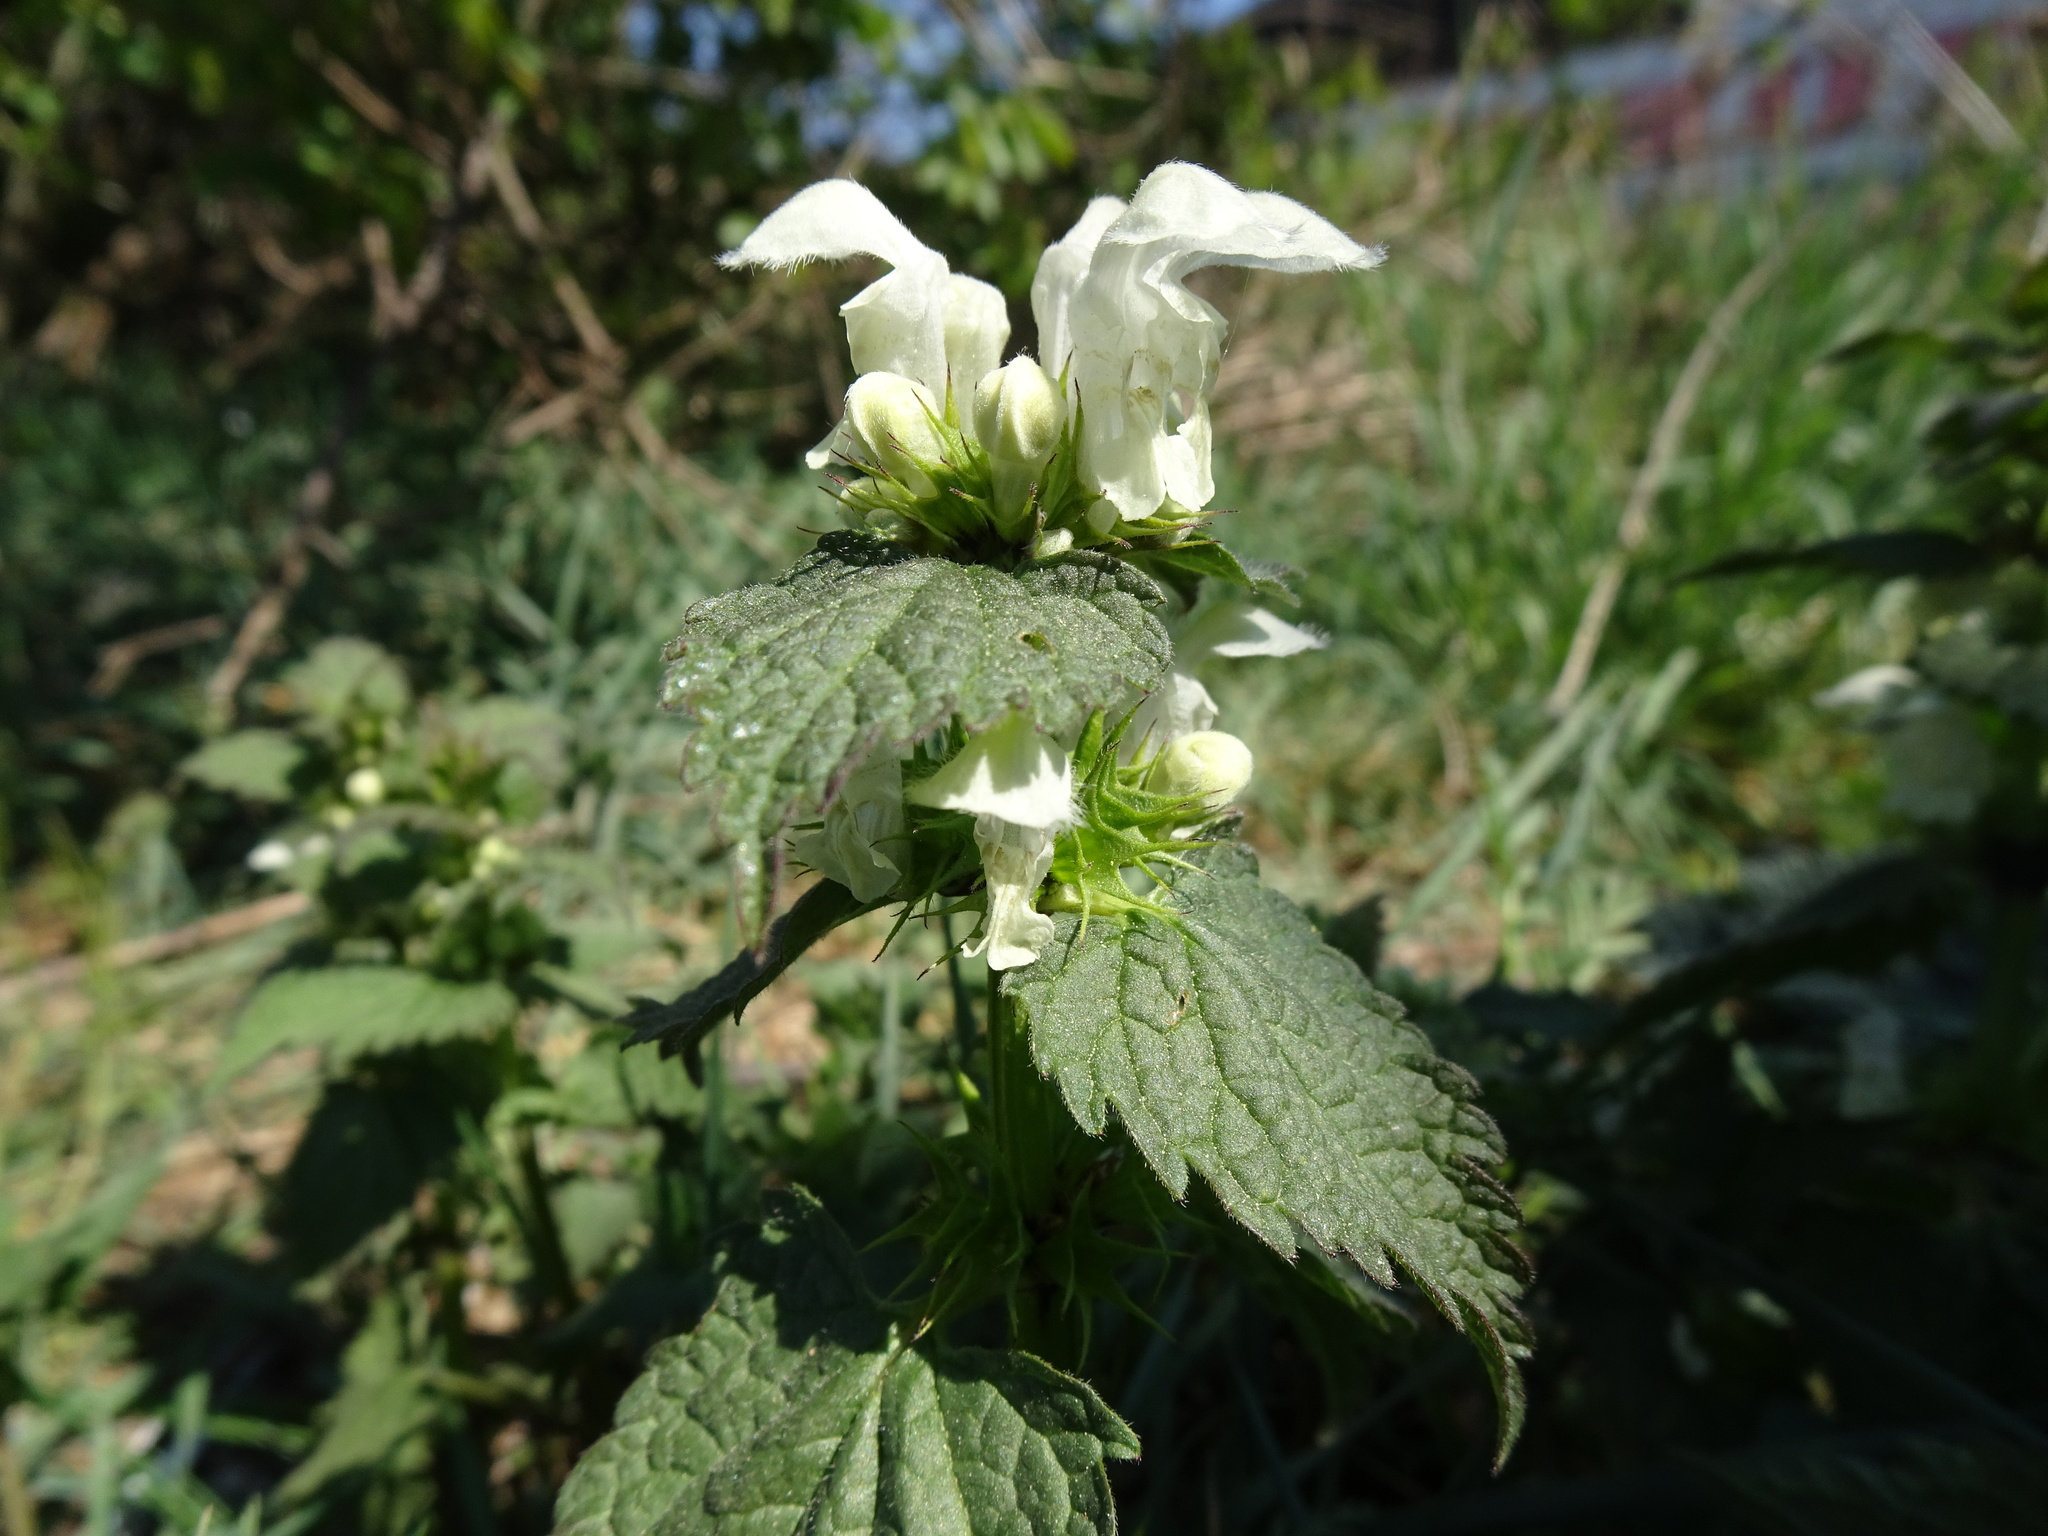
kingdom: Plantae
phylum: Tracheophyta
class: Magnoliopsida
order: Lamiales
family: Lamiaceae
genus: Lamium
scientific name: Lamium album
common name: White dead-nettle
